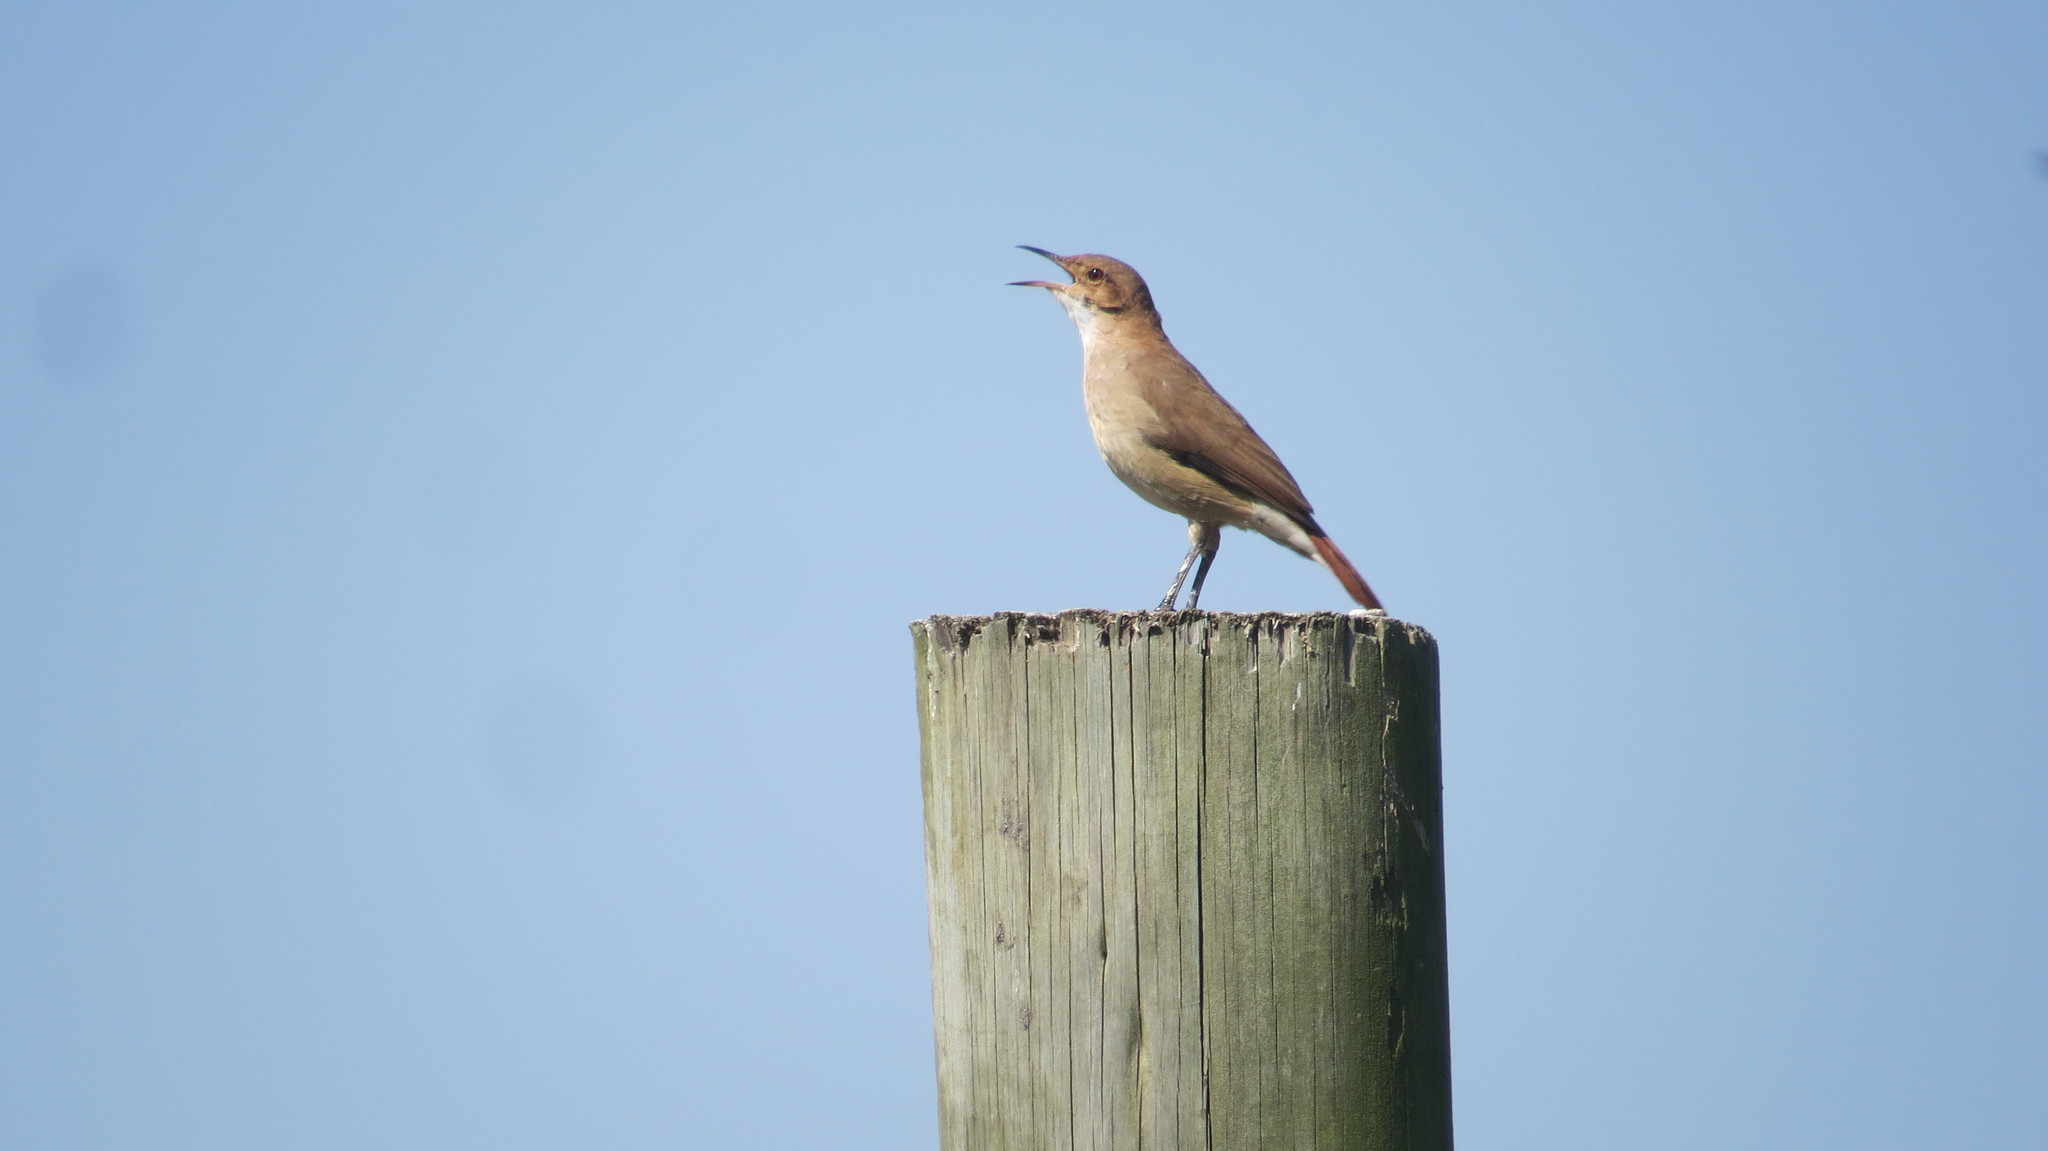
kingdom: Animalia
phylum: Chordata
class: Aves
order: Passeriformes
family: Furnariidae
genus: Furnarius
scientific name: Furnarius rufus
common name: Rufous hornero
